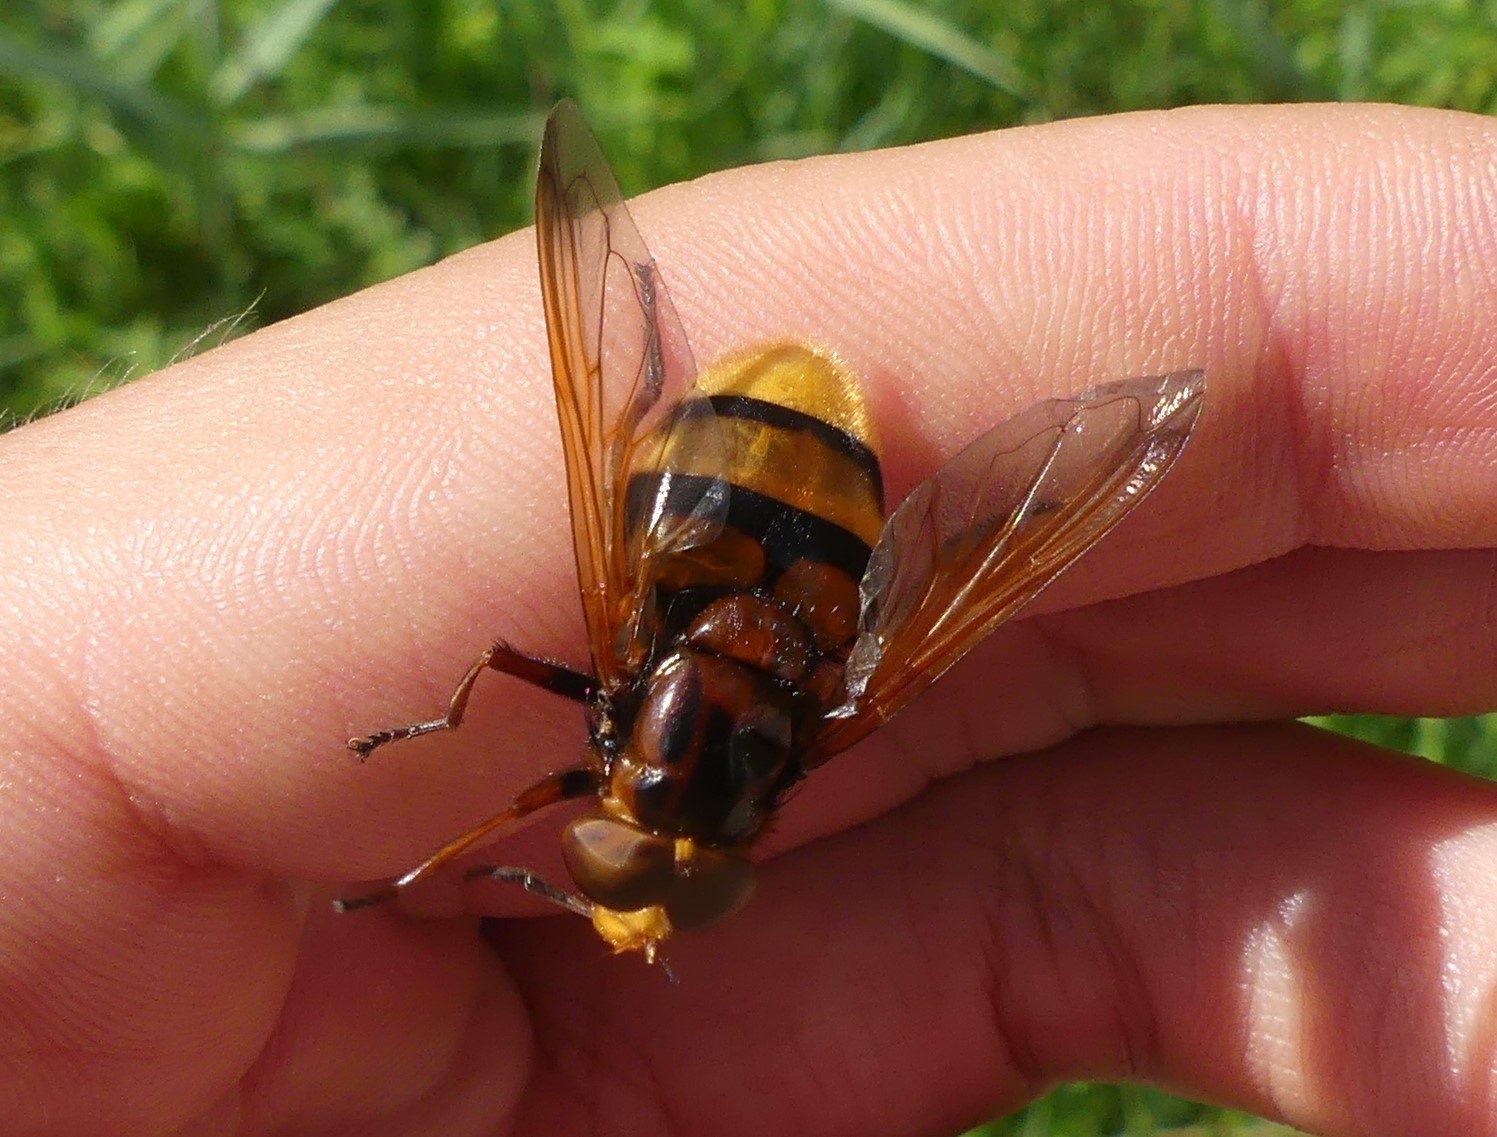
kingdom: Animalia
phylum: Arthropoda
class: Insecta
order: Diptera
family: Syrphidae
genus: Volucella
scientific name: Volucella zonaria
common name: Hornet hoverfly
